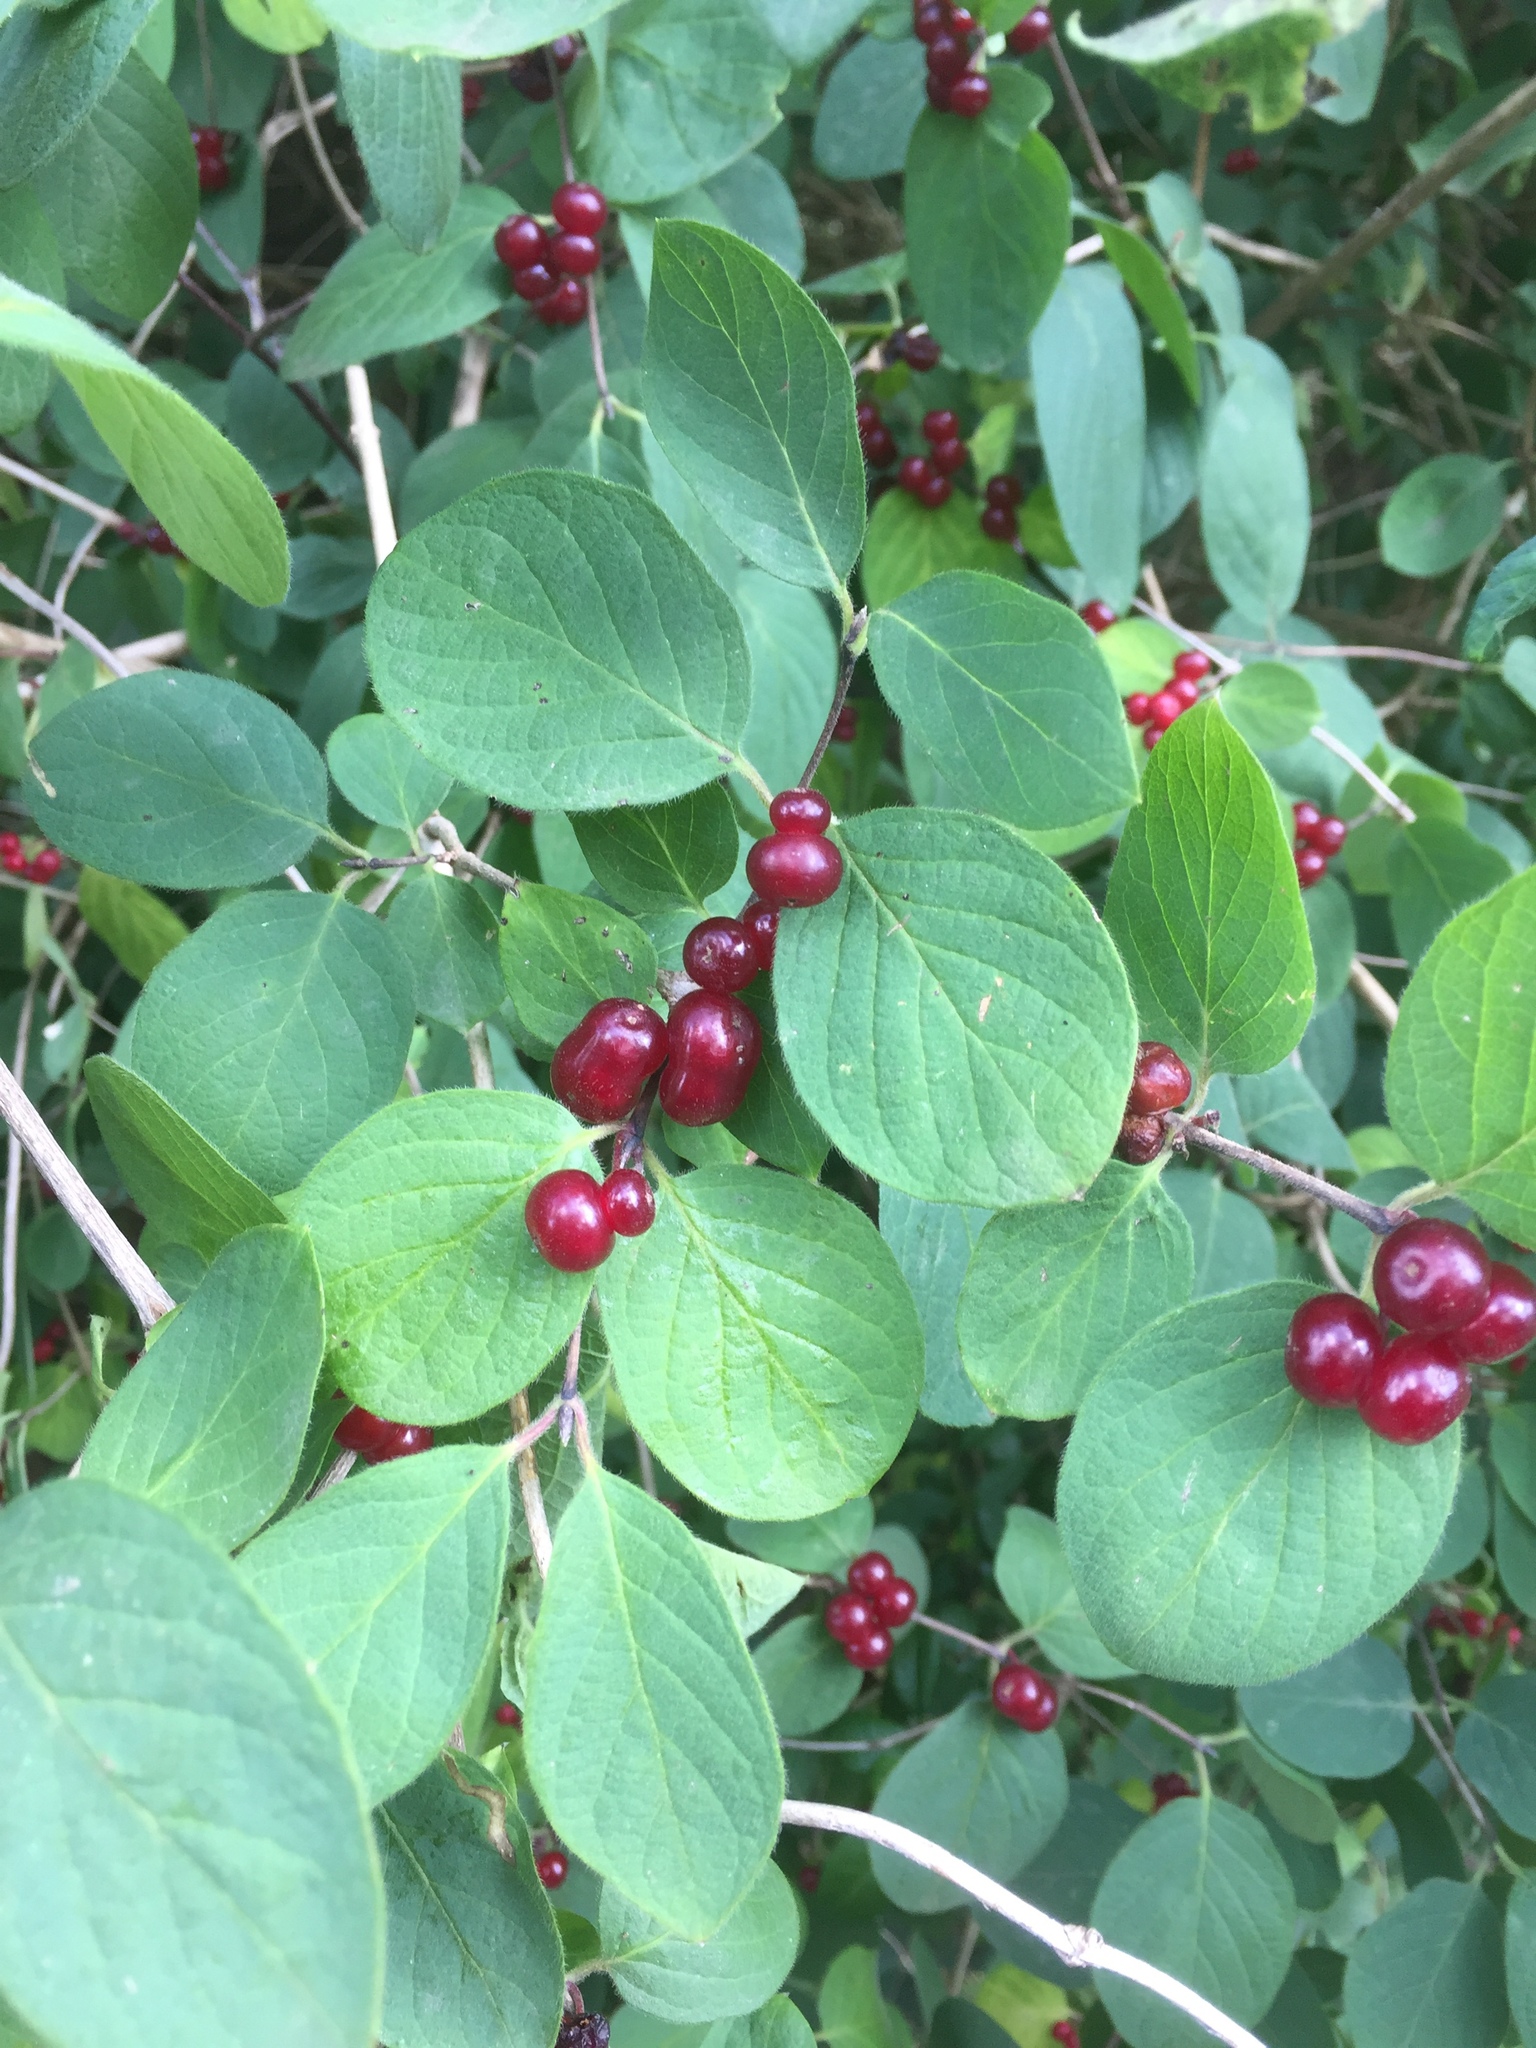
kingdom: Plantae
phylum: Tracheophyta
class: Magnoliopsida
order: Dipsacales
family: Caprifoliaceae
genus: Lonicera
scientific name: Lonicera xylosteum
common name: Fly honeysuckle
